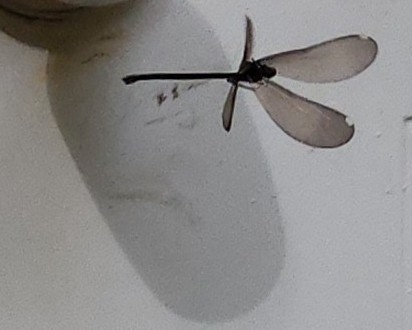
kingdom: Animalia
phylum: Arthropoda
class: Insecta
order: Odonata
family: Calopterygidae
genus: Calopteryx
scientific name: Calopteryx maculata
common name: Ebony jewelwing
